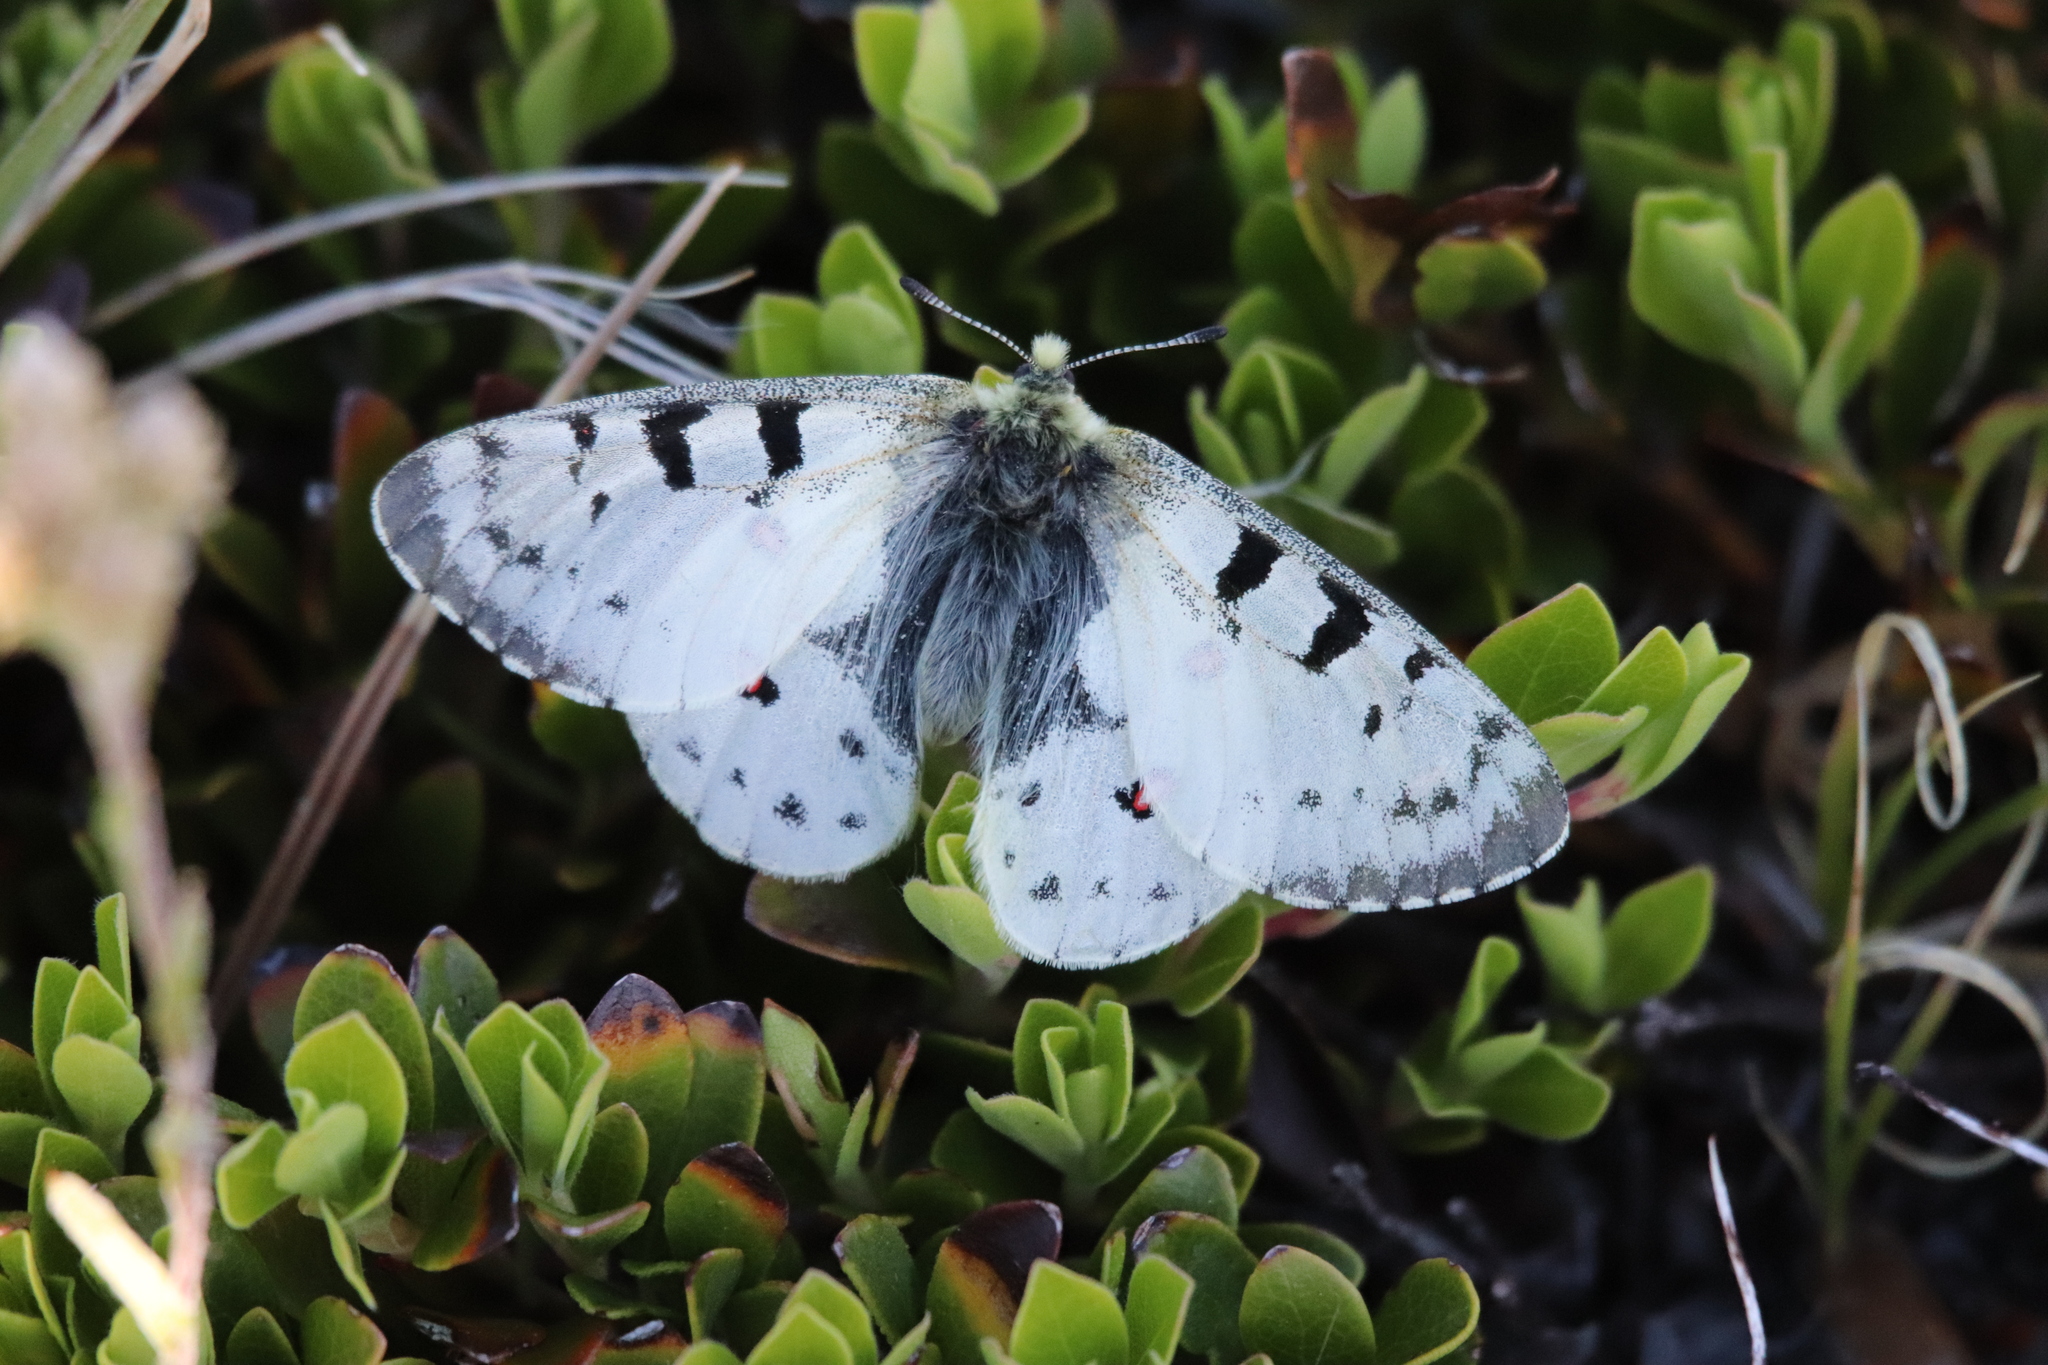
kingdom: Animalia
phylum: Arthropoda
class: Insecta
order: Lepidoptera
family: Papilionidae
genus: Parnassius
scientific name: Parnassius smintheus
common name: Mountain parnassian
